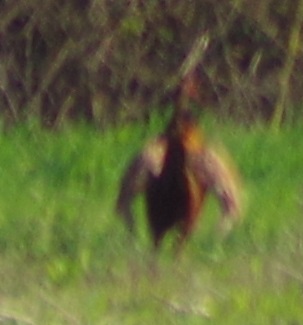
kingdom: Animalia
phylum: Chordata
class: Aves
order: Galliformes
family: Phasianidae
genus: Phasianus
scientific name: Phasianus colchicus
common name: Common pheasant
